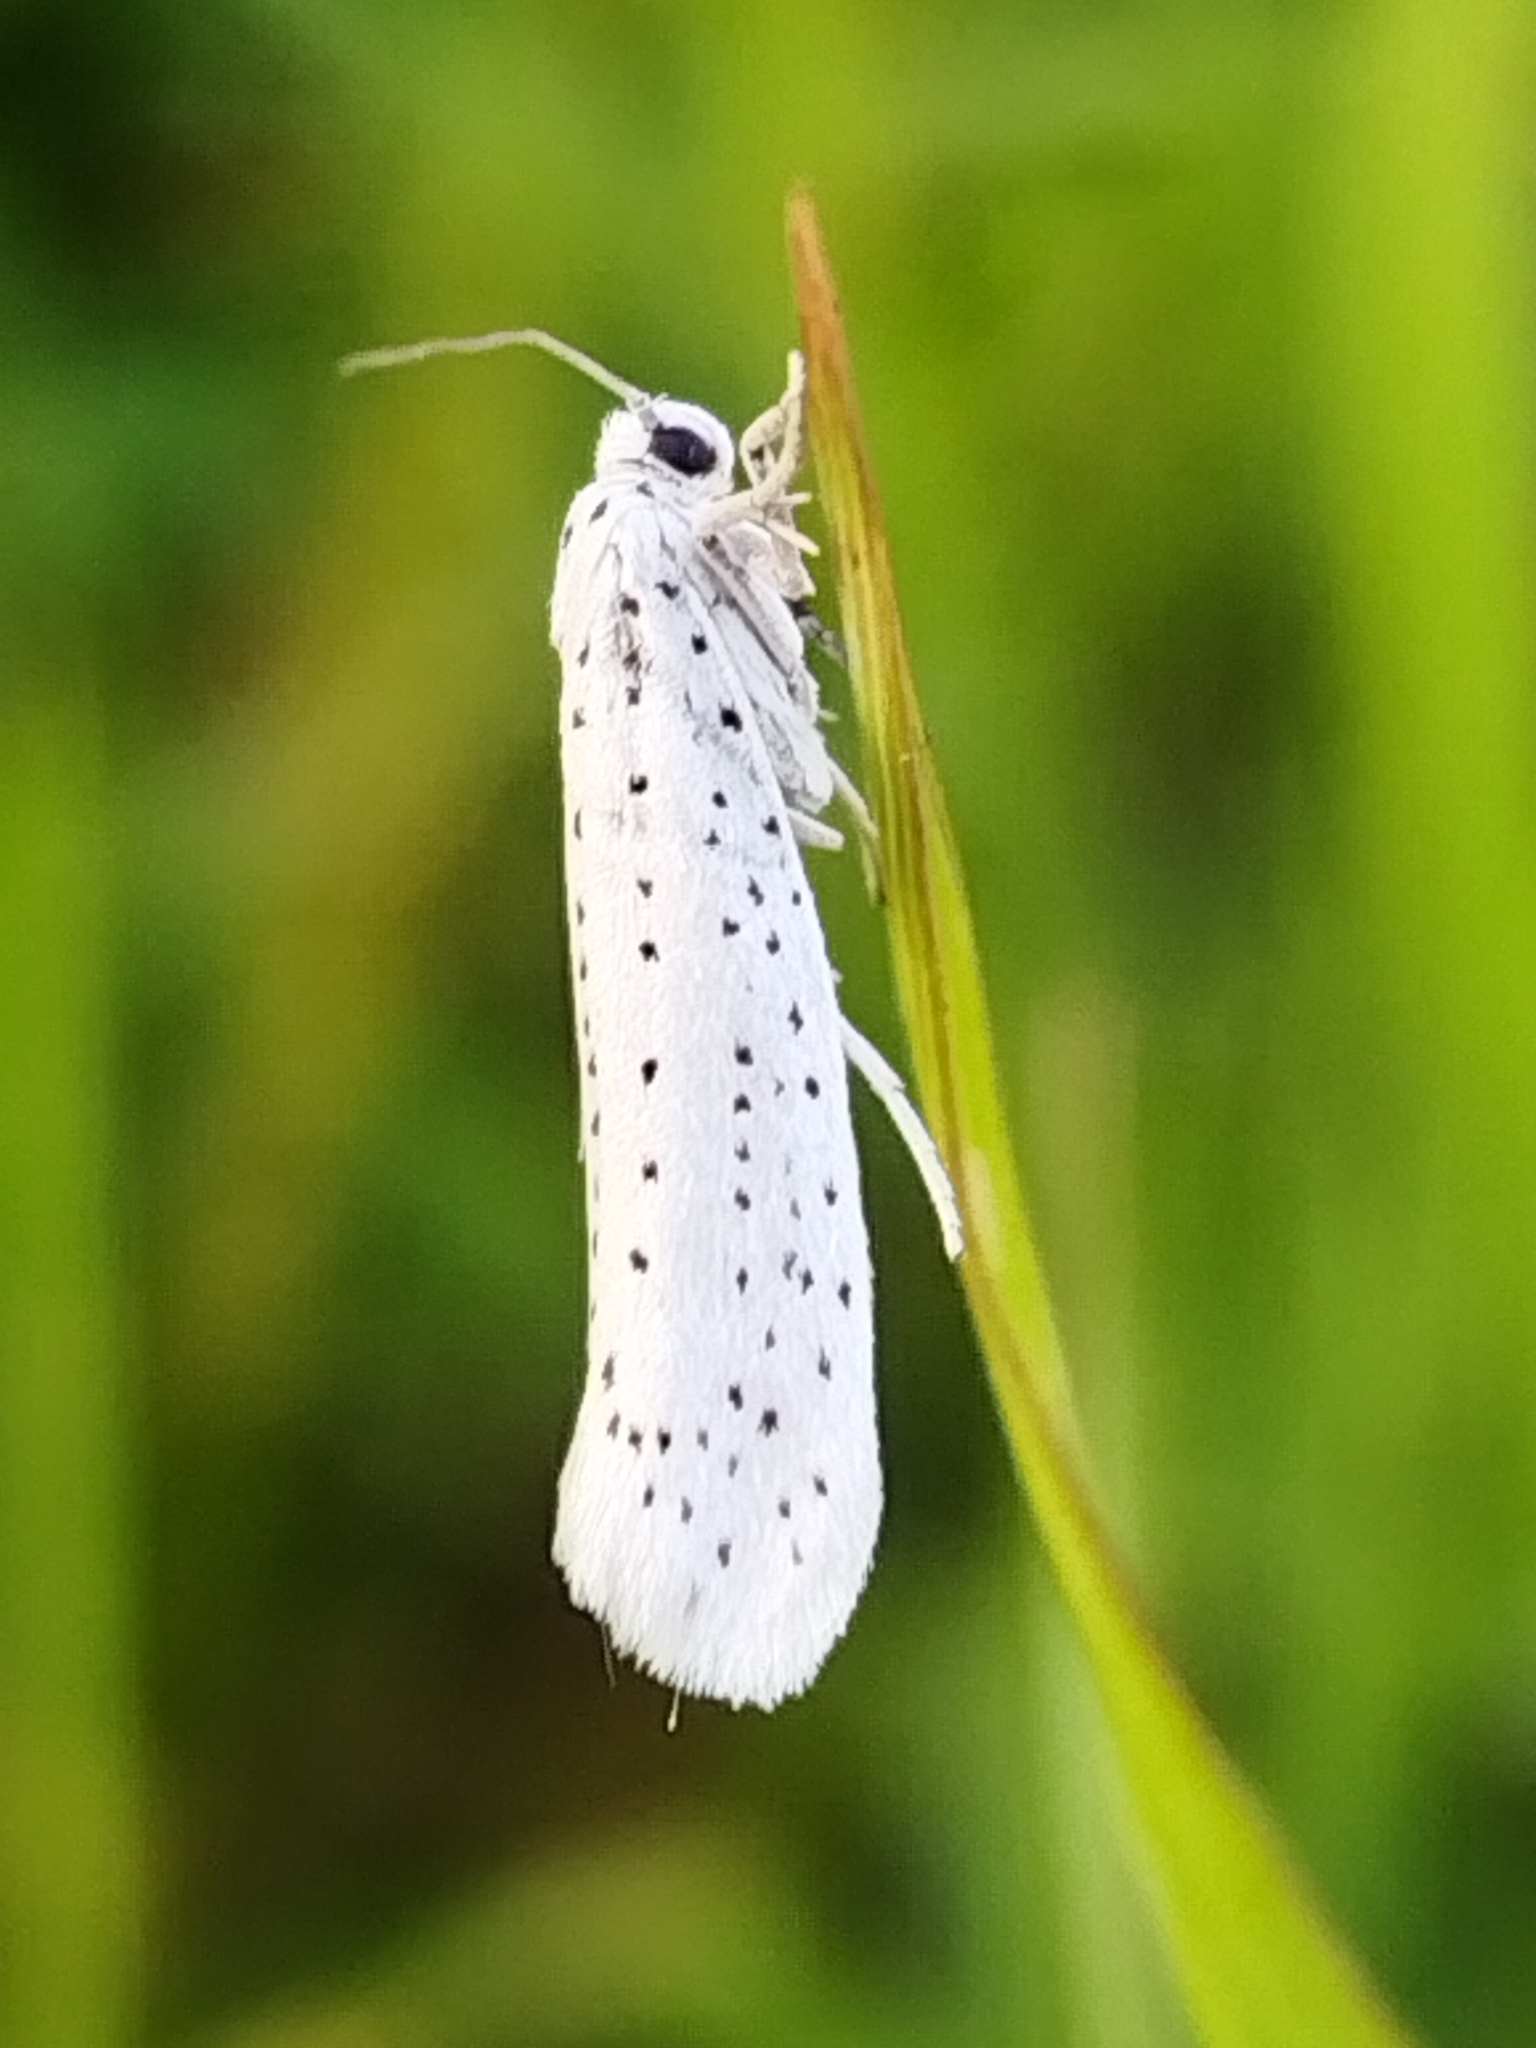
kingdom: Animalia
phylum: Arthropoda
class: Insecta
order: Lepidoptera
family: Yponomeutidae
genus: Yponomeuta
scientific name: Yponomeuta evonymella
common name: Bird-cherry ermine
